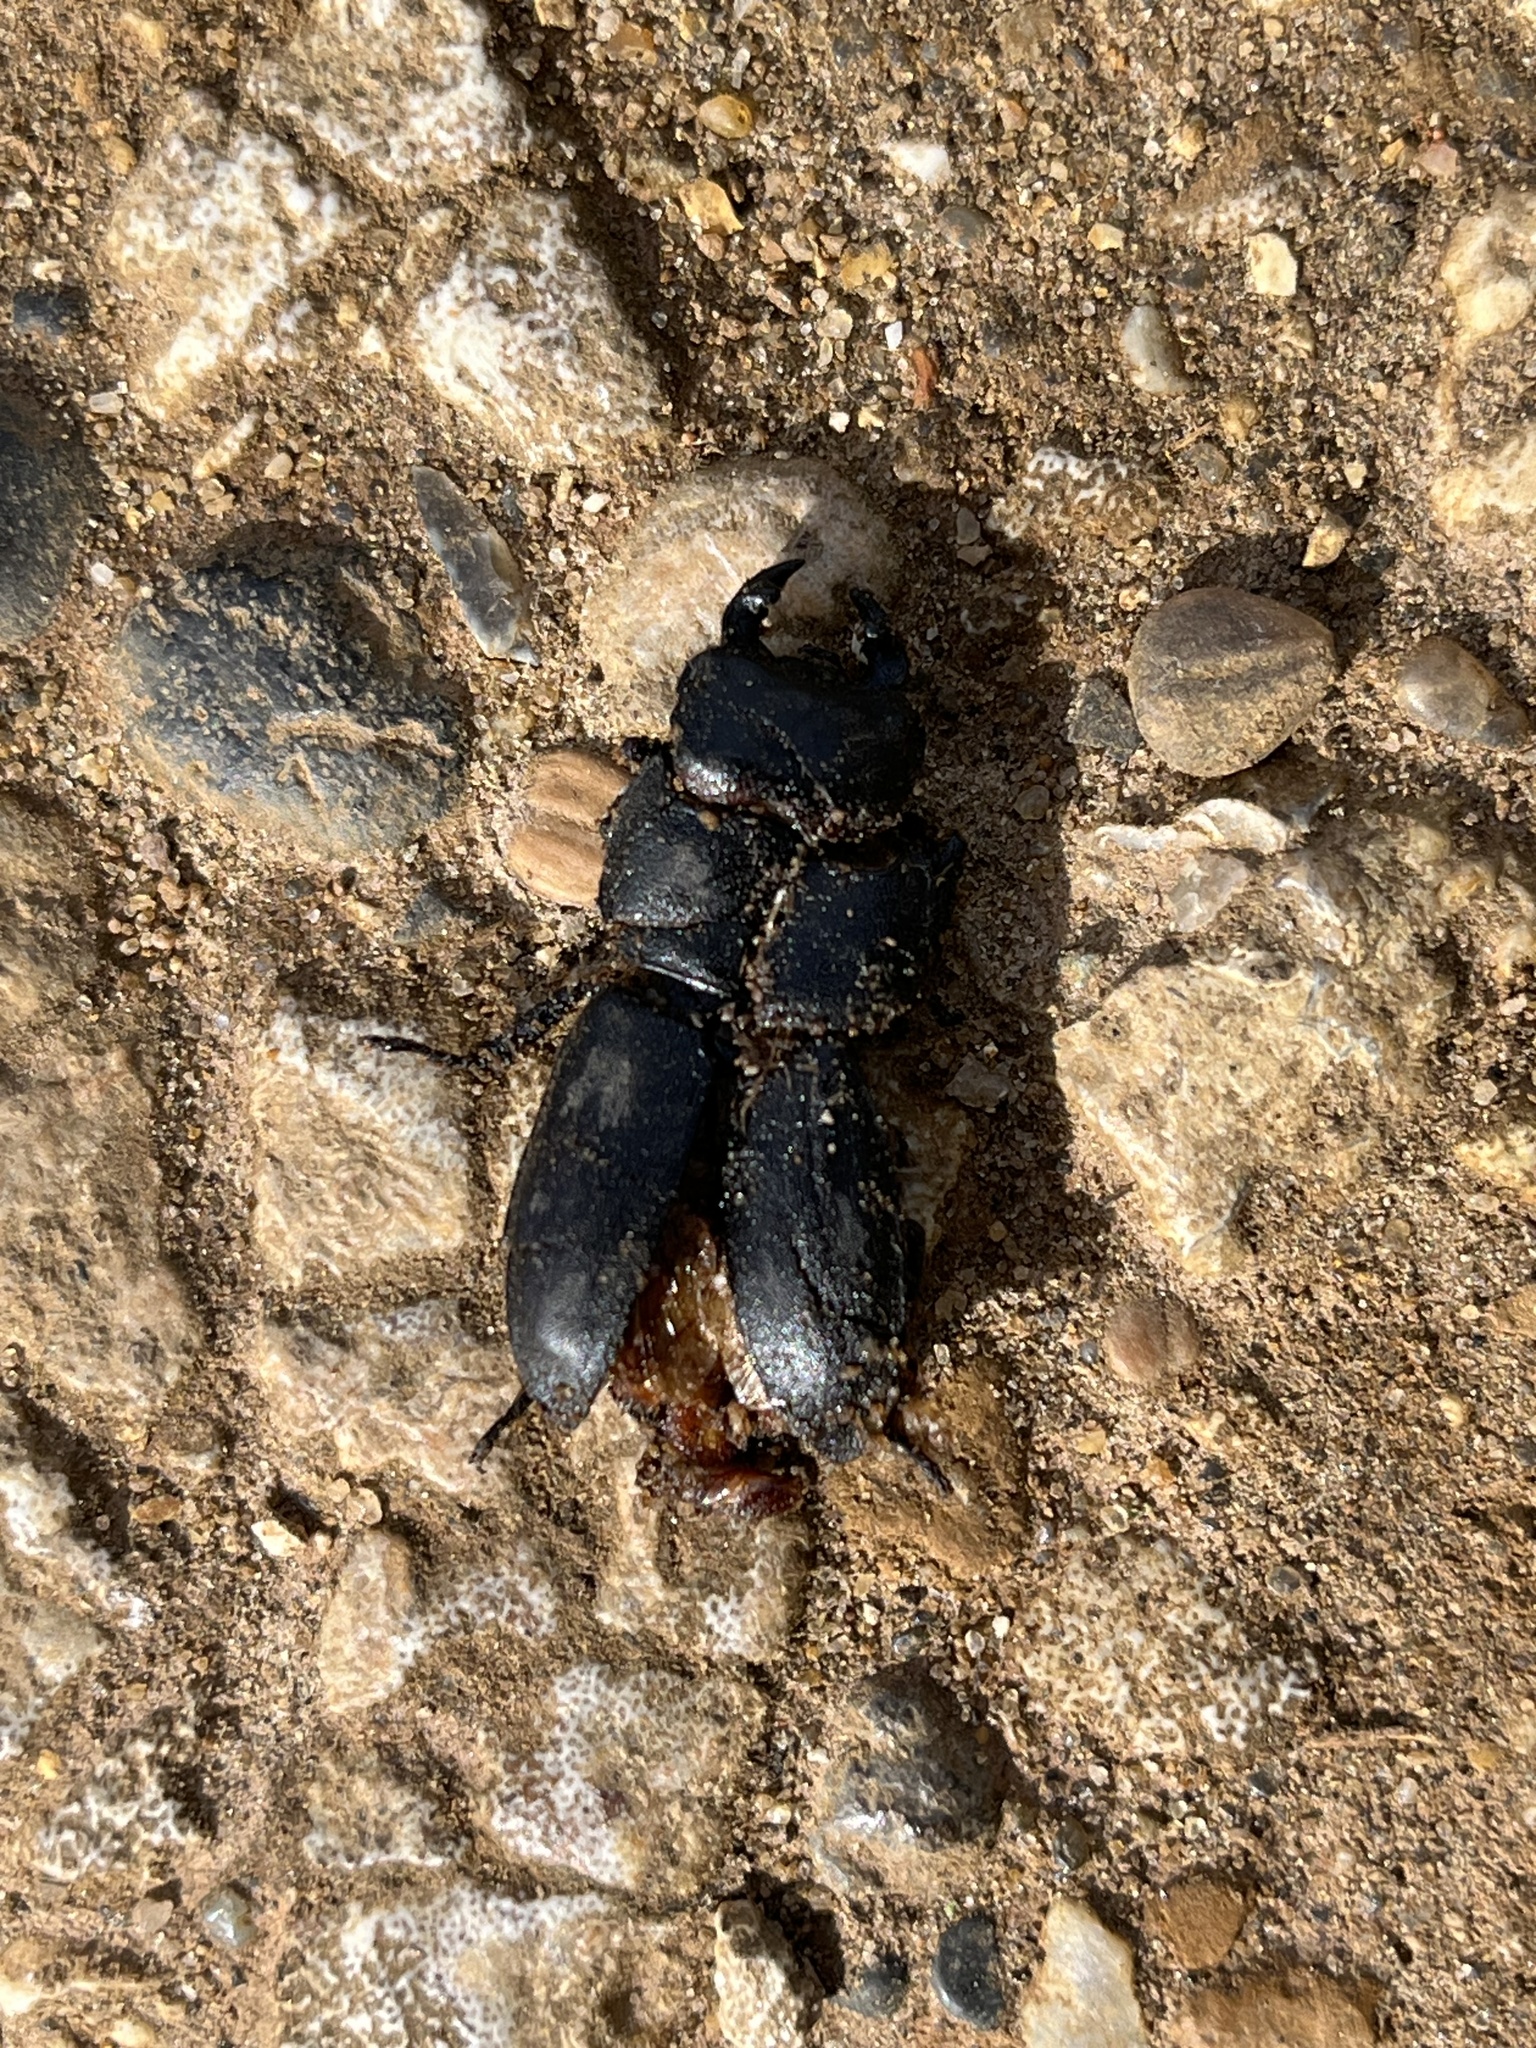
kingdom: Animalia
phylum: Arthropoda
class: Insecta
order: Coleoptera
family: Lucanidae
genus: Dorcus
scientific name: Dorcus parallelipipedus
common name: Lesser stag beetle
